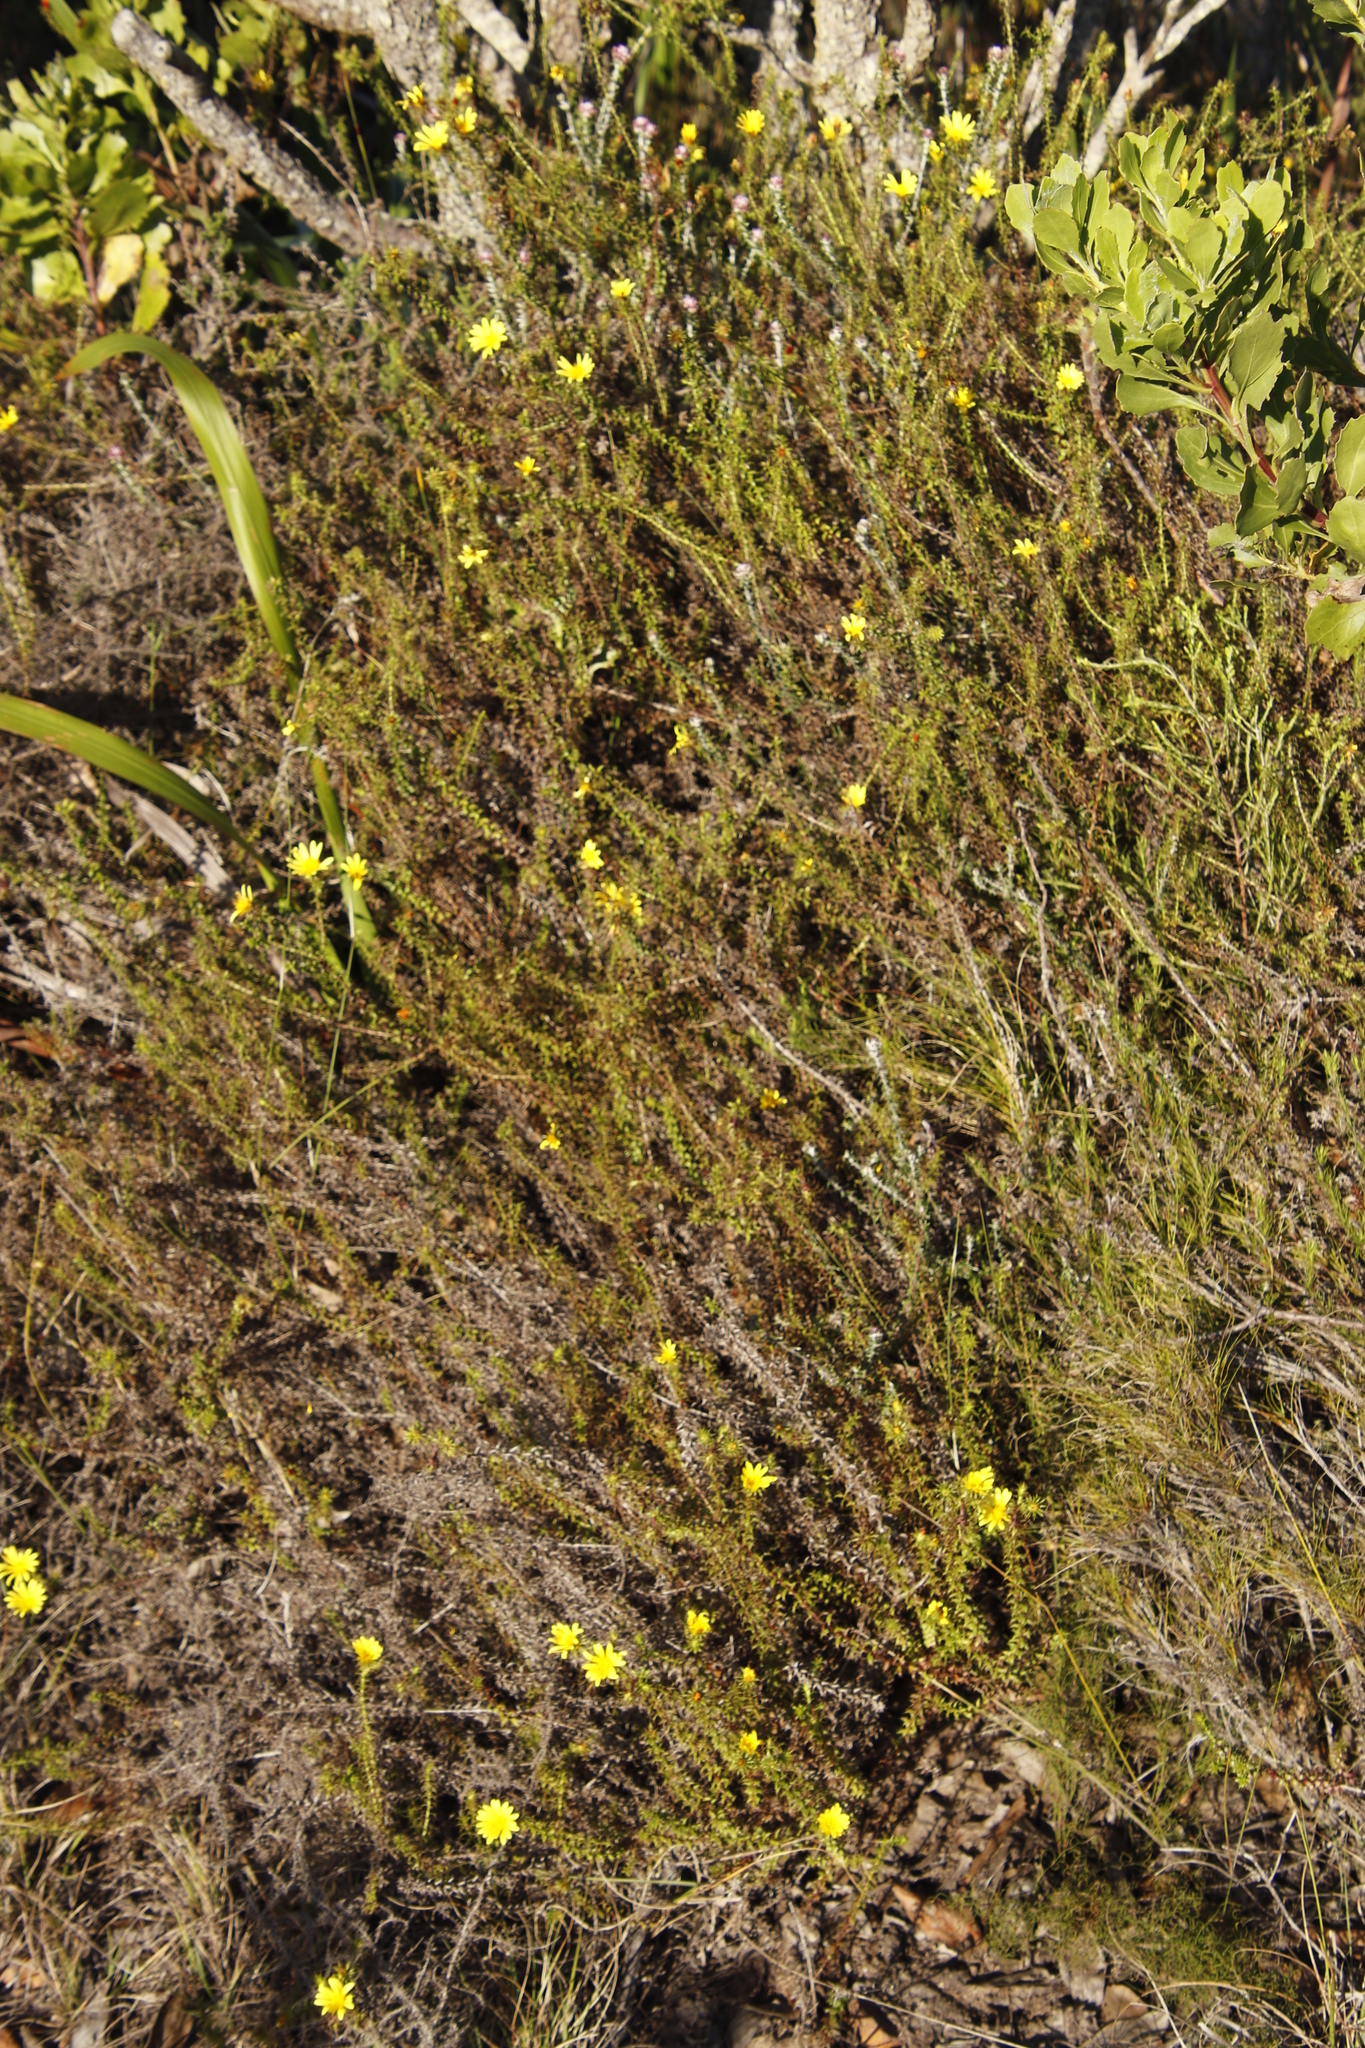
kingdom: Plantae
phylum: Tracheophyta
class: Magnoliopsida
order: Asterales
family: Asteraceae
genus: Cullumia
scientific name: Cullumia setosa
